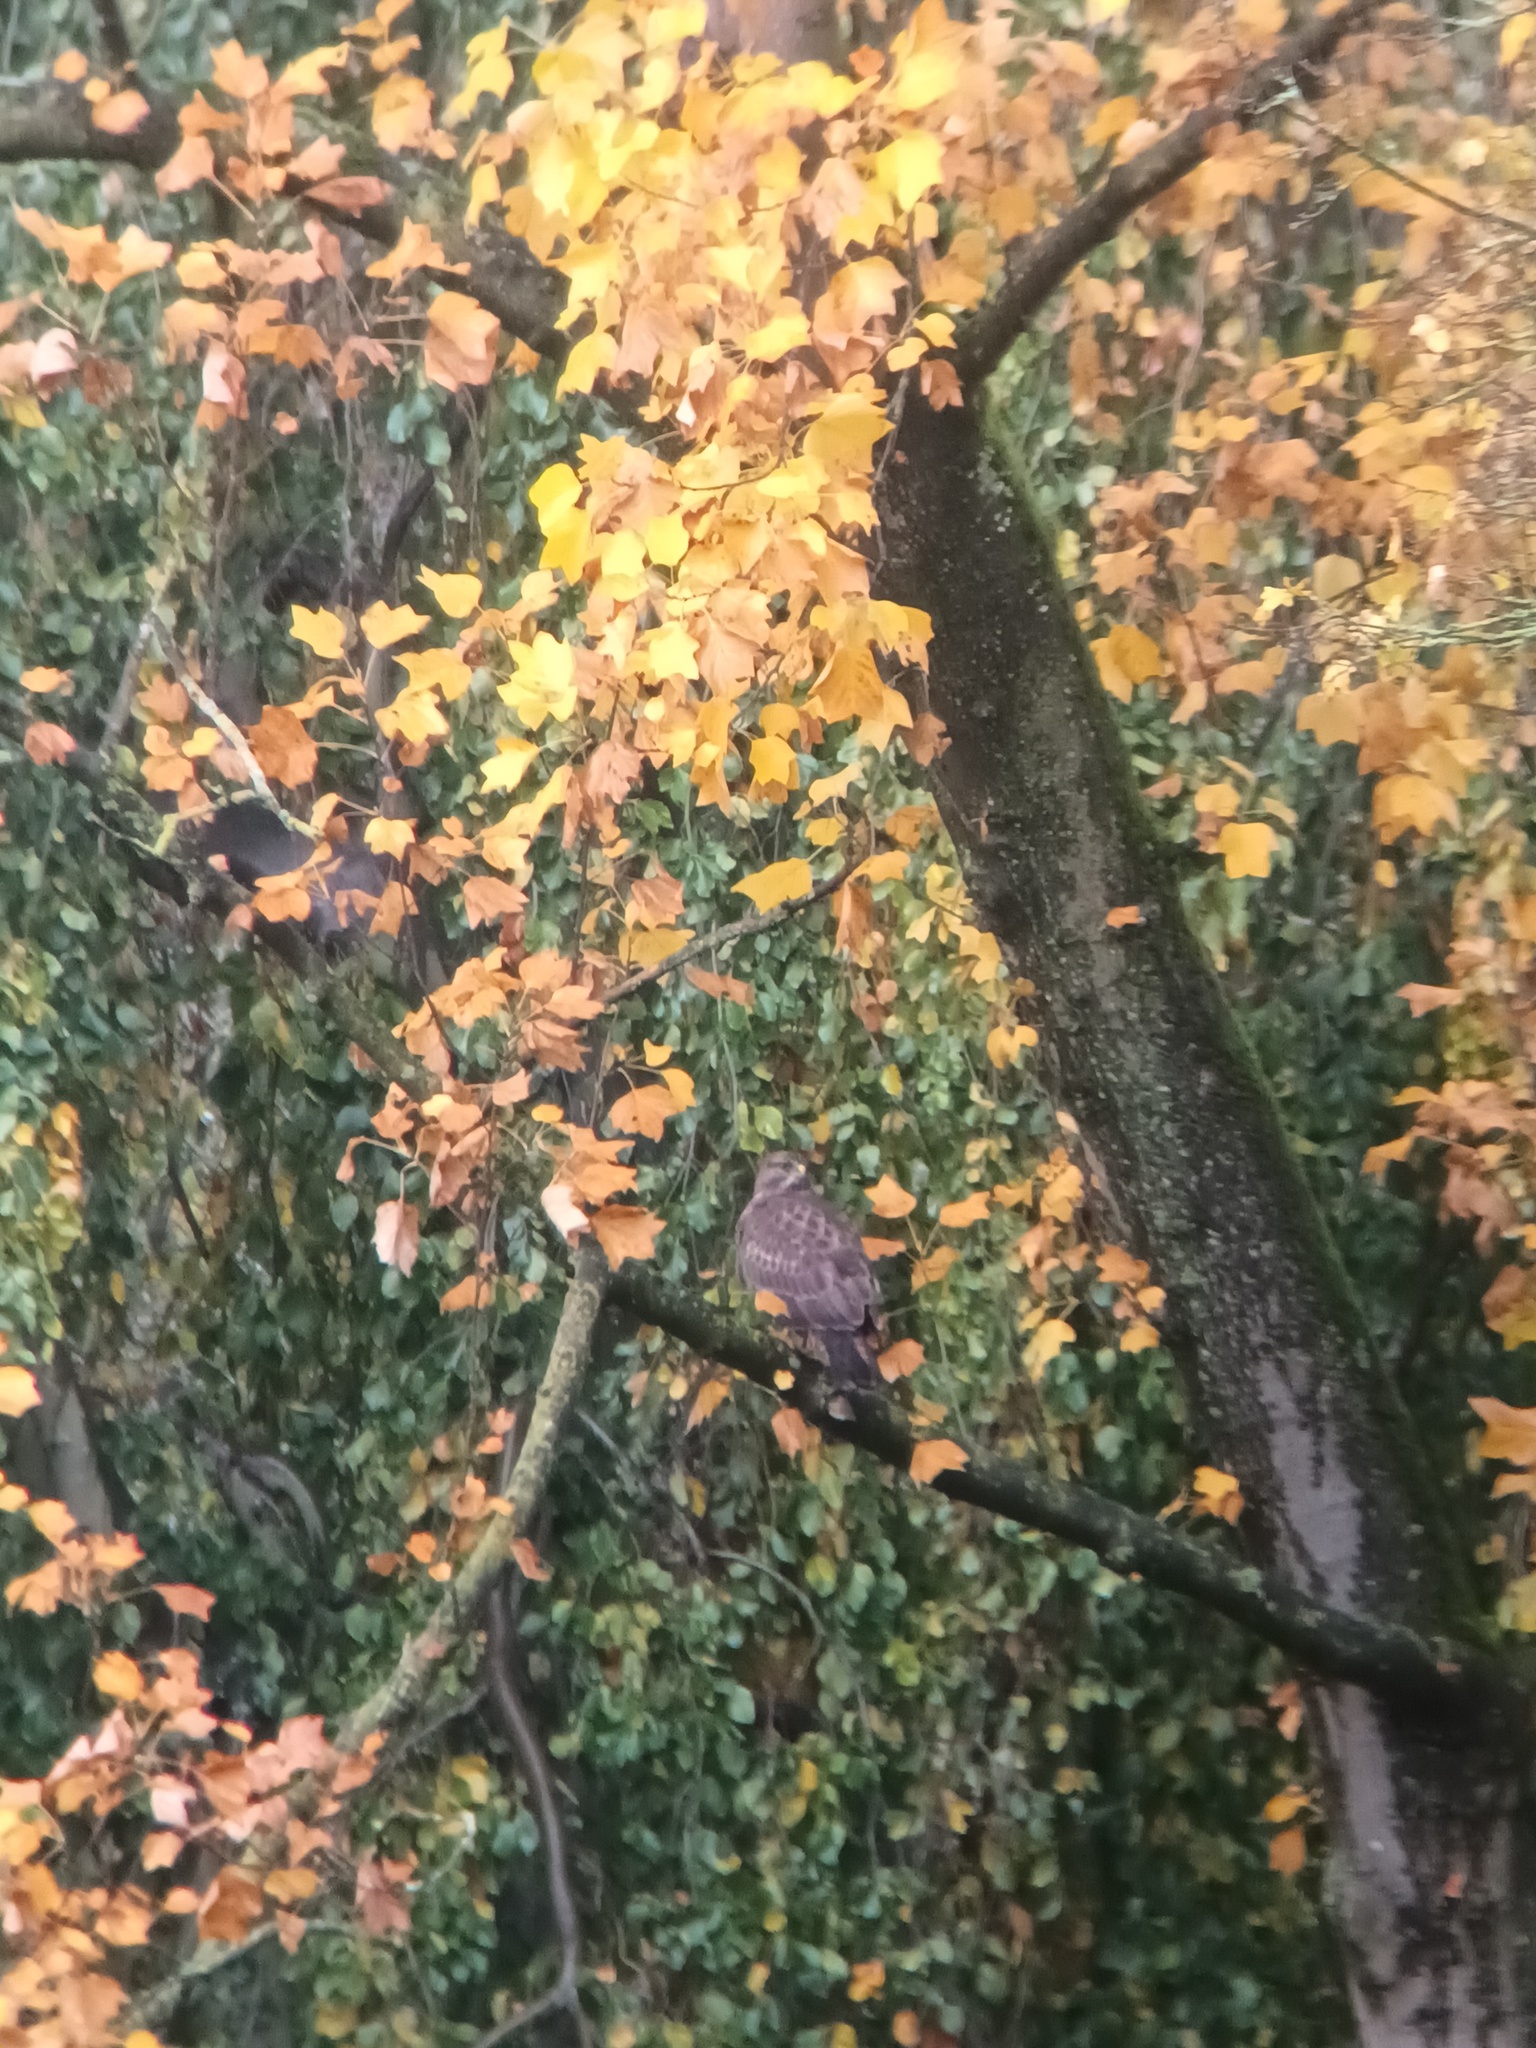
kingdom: Animalia
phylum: Chordata
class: Aves
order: Accipitriformes
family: Accipitridae
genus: Buteo
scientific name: Buteo buteo
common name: Common buzzard
